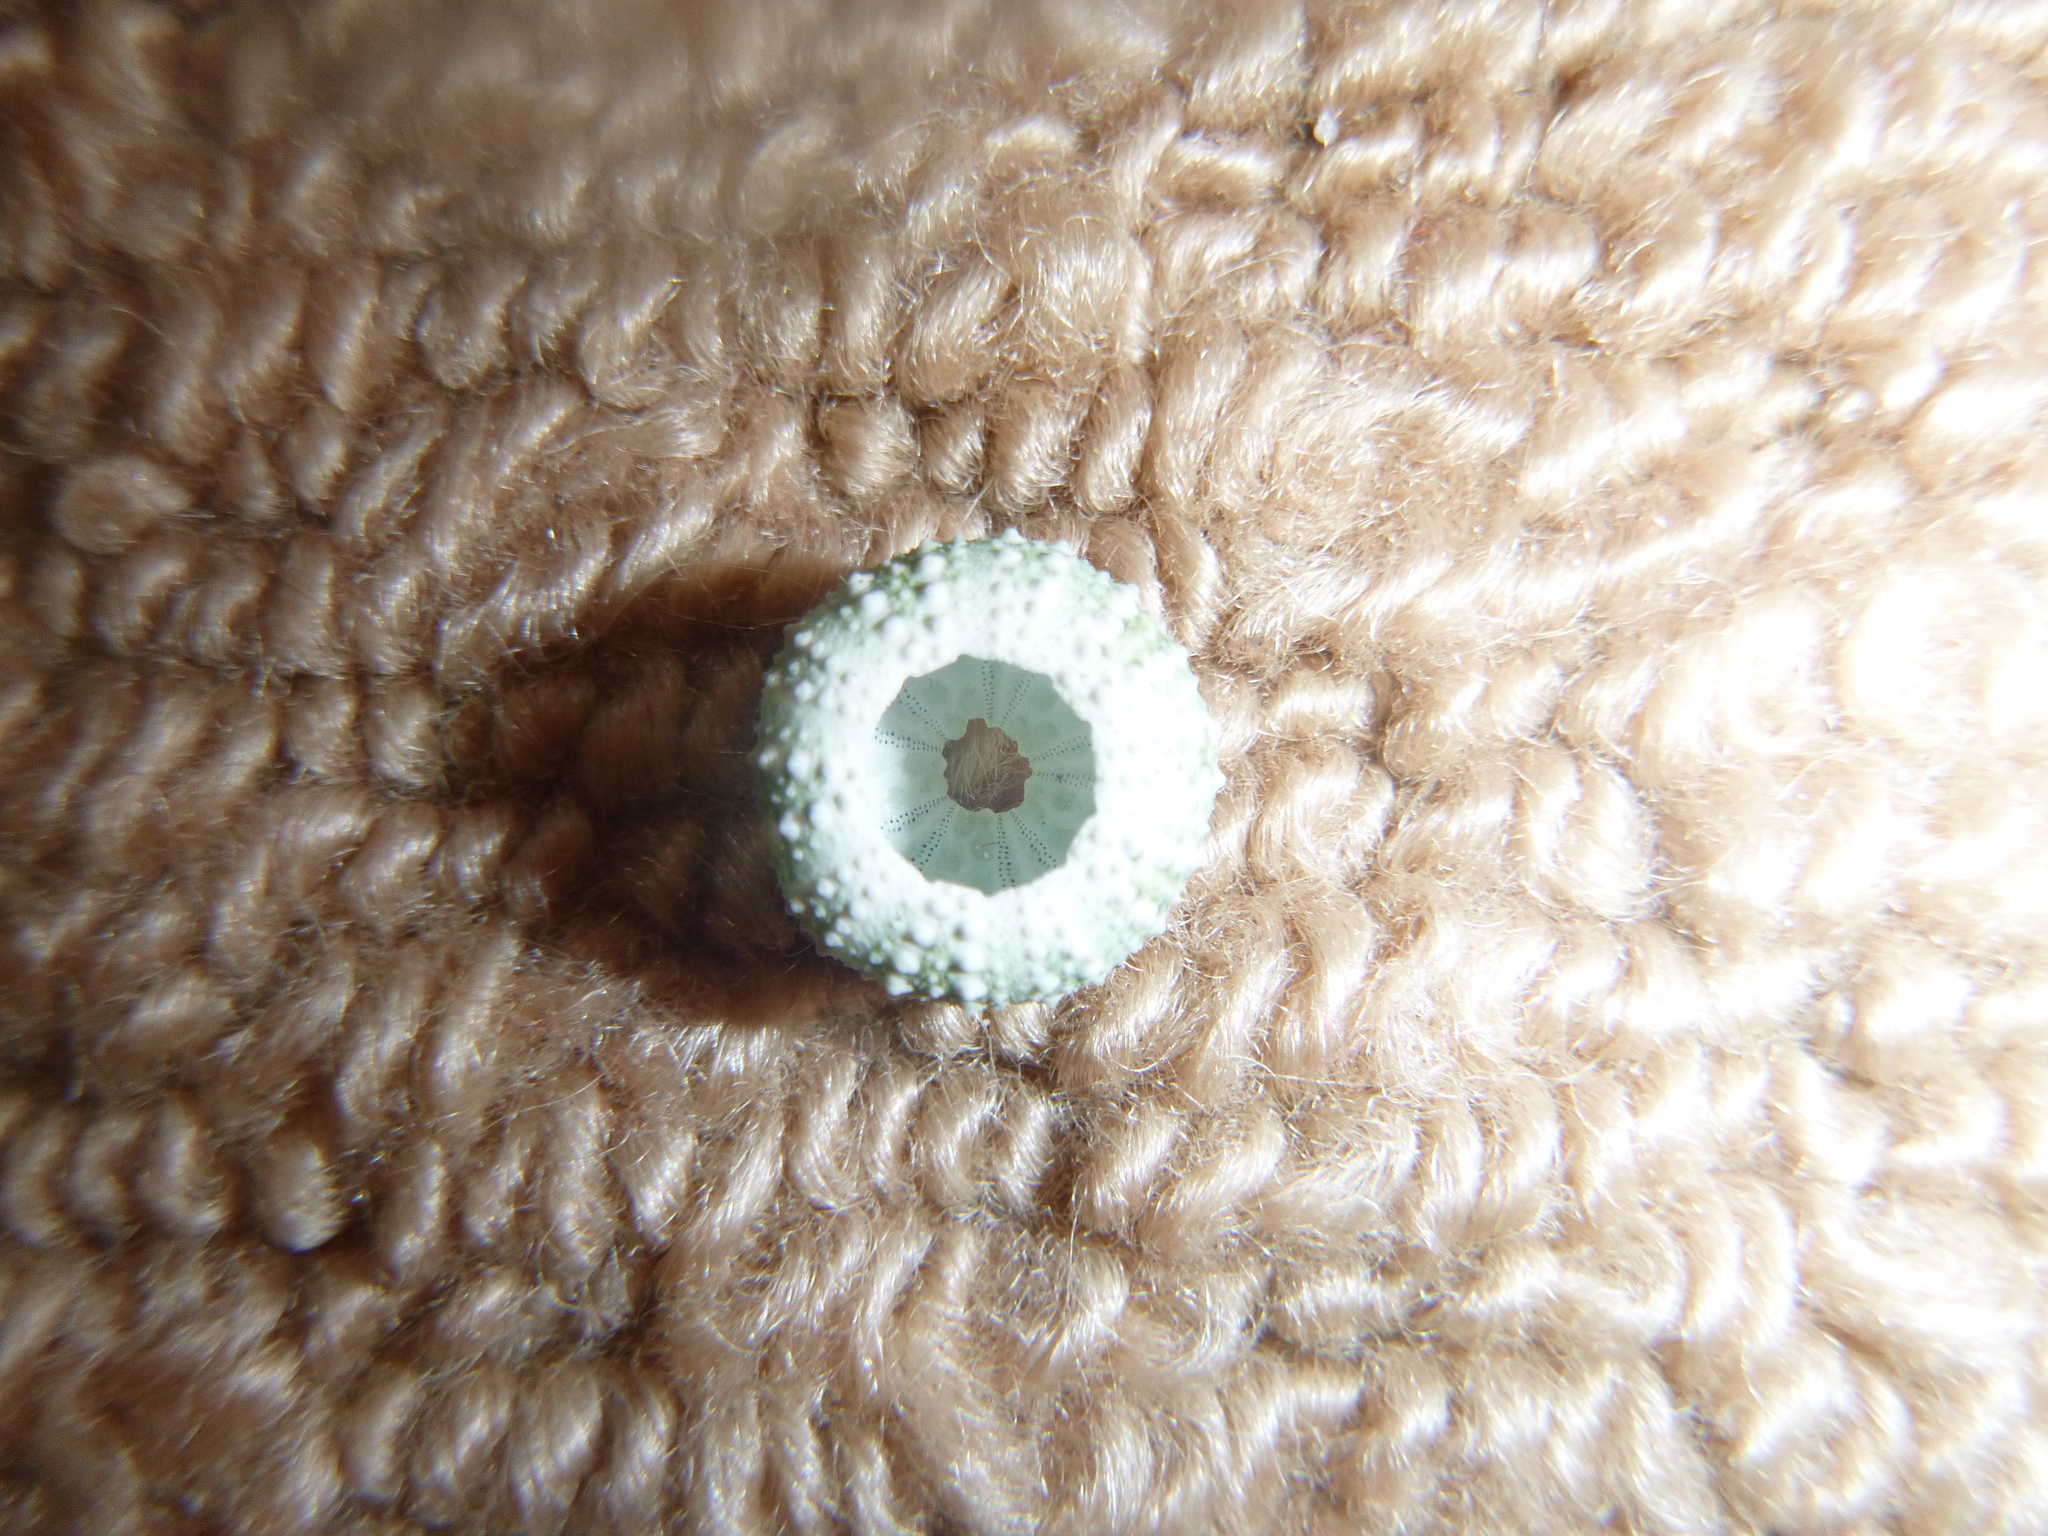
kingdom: Animalia
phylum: Echinodermata
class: Echinoidea
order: Camarodonta
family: Echinometridae
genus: Evechinus
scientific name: Evechinus chloroticus
